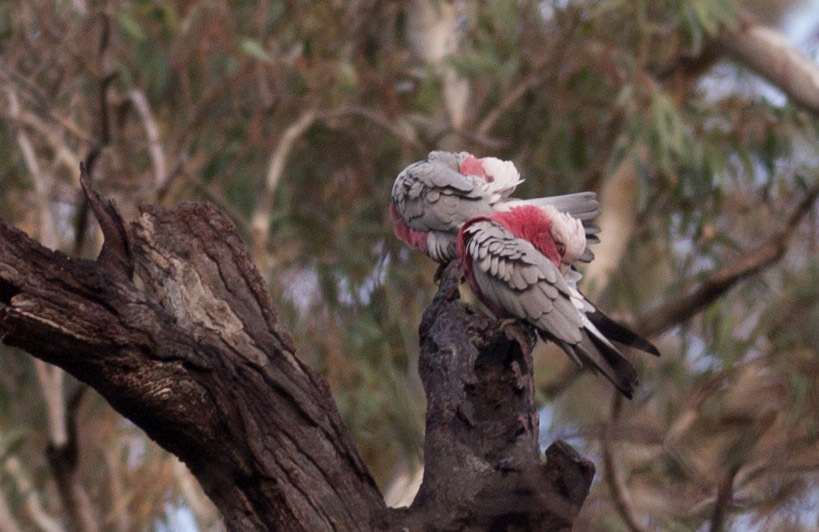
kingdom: Animalia
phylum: Chordata
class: Aves
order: Psittaciformes
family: Psittacidae
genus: Eolophus
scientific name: Eolophus roseicapilla
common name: Galah
